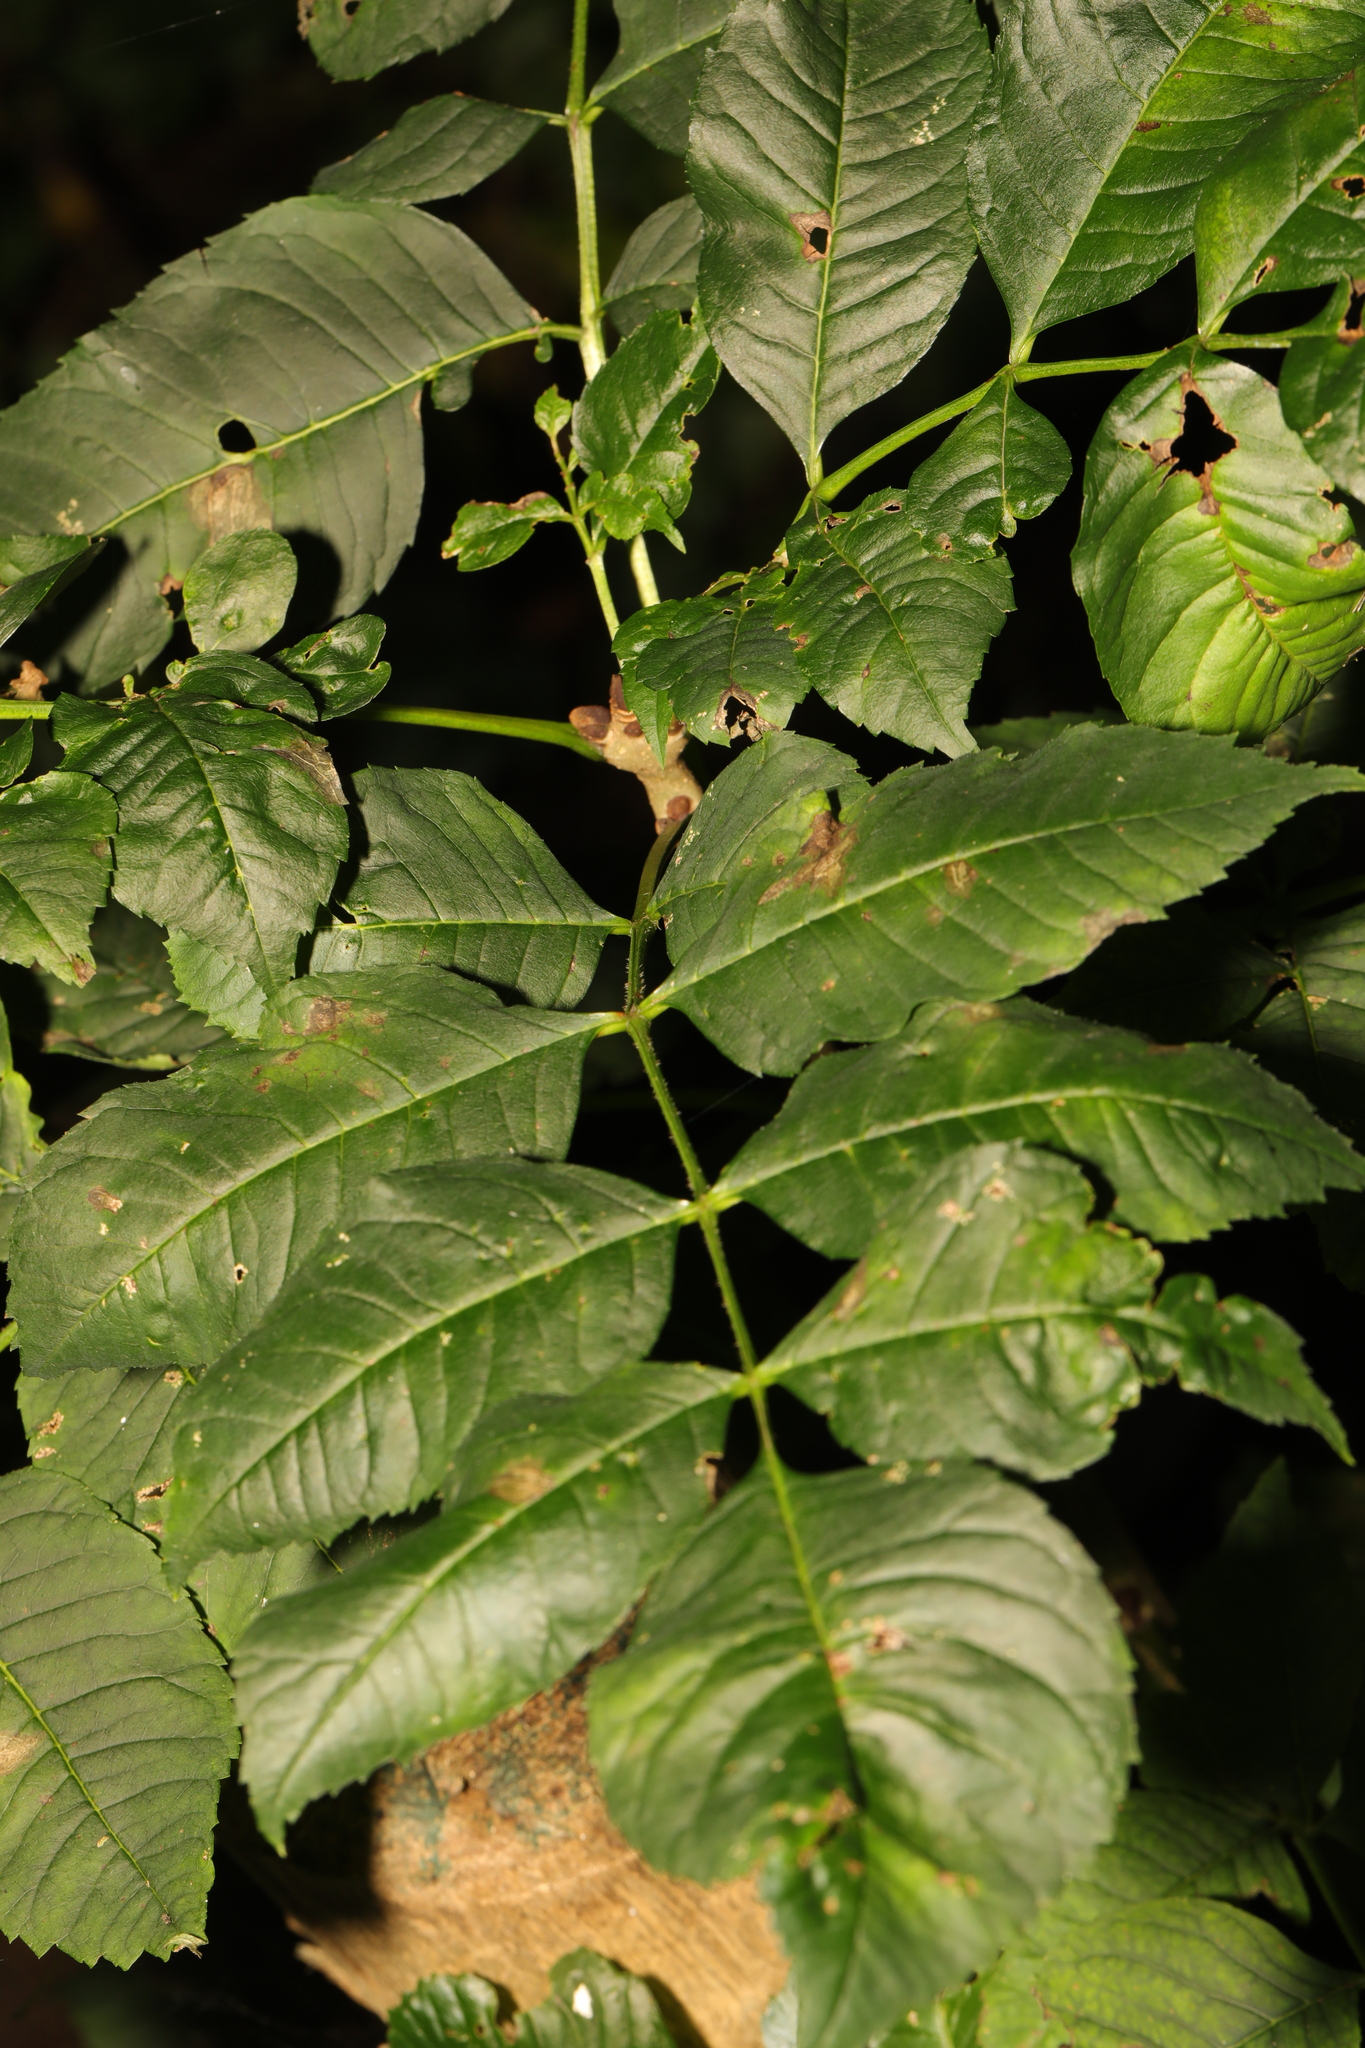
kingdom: Plantae
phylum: Tracheophyta
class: Magnoliopsida
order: Lamiales
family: Oleaceae
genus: Fraxinus
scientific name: Fraxinus excelsior
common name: European ash
